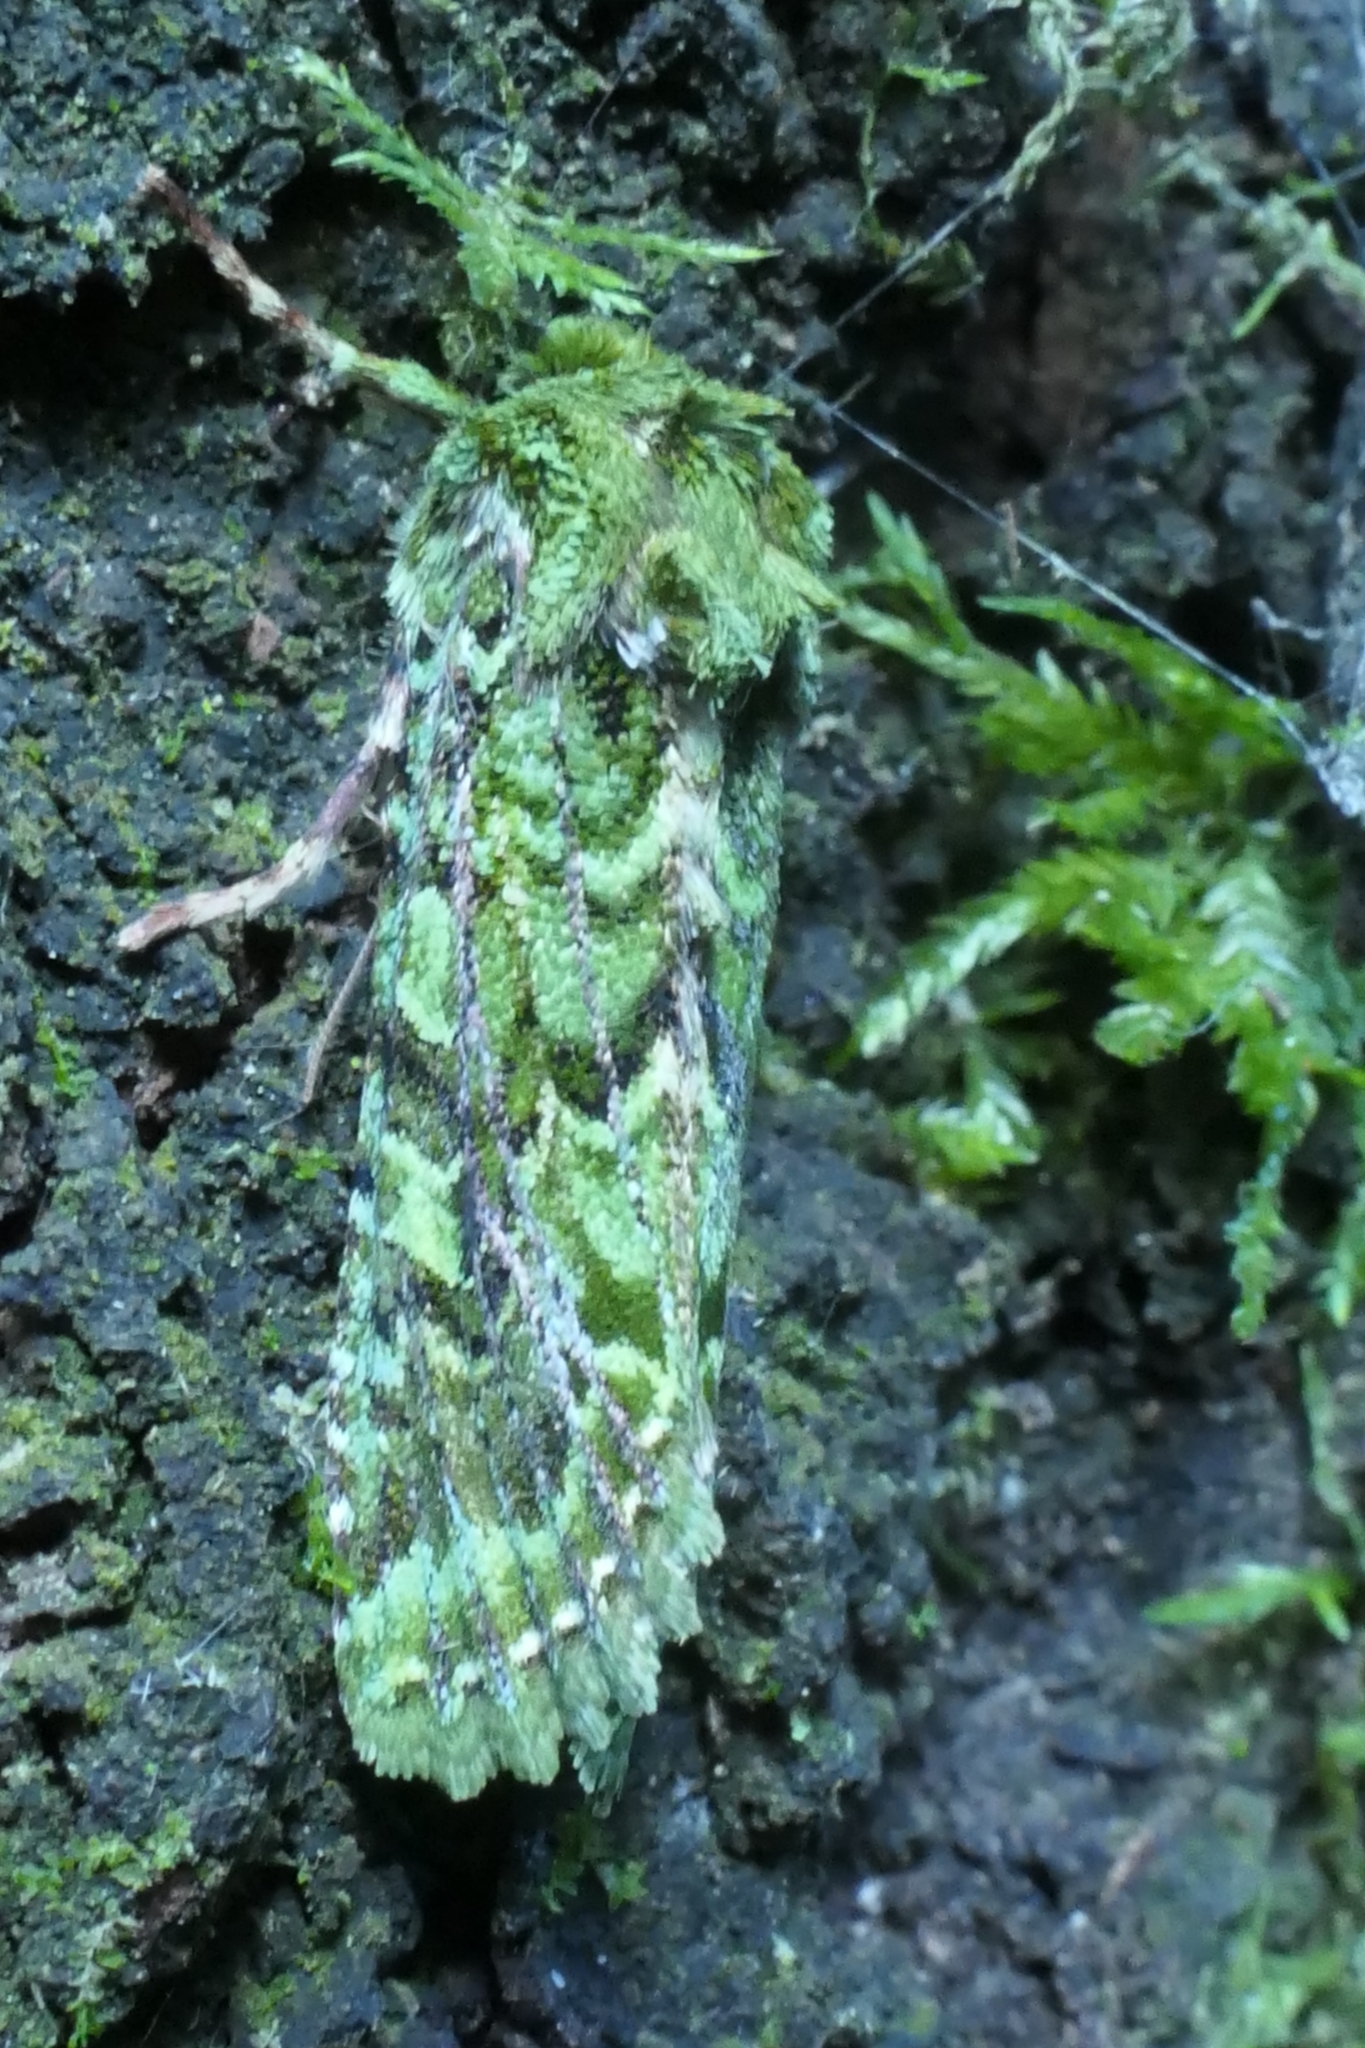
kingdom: Animalia
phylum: Arthropoda
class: Insecta
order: Lepidoptera
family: Noctuidae
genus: Feredayia
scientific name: Feredayia grammosa
